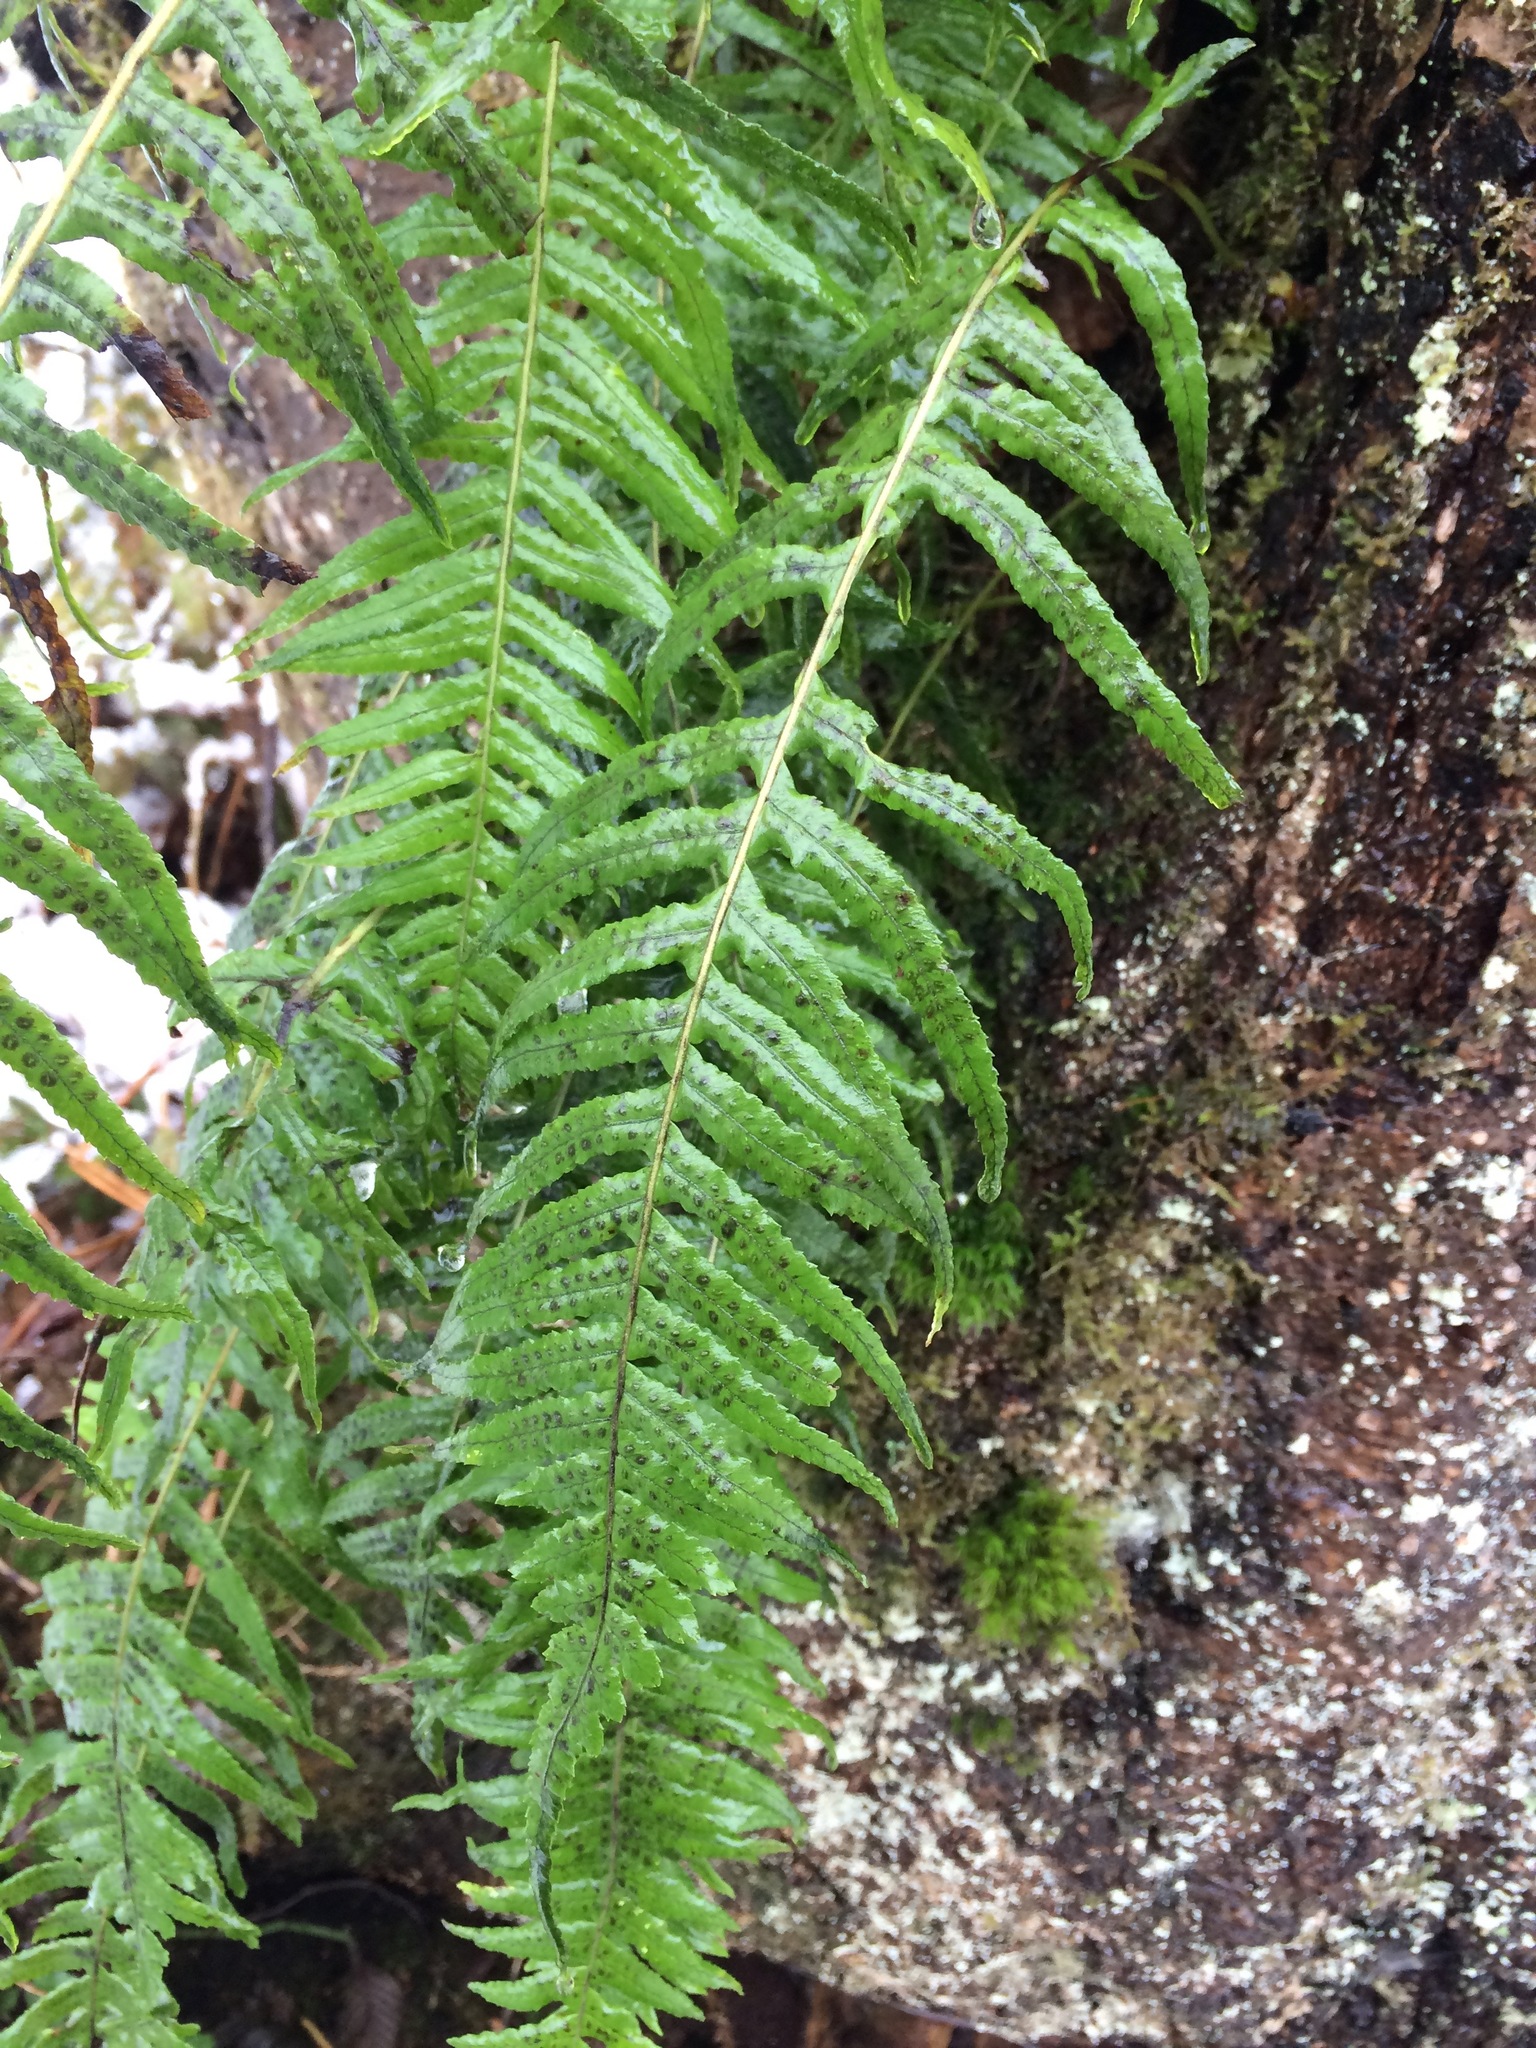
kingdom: Plantae
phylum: Tracheophyta
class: Polypodiopsida
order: Polypodiales
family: Polypodiaceae
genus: Polypodium
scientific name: Polypodium glycyrrhiza
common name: Licorice fern
